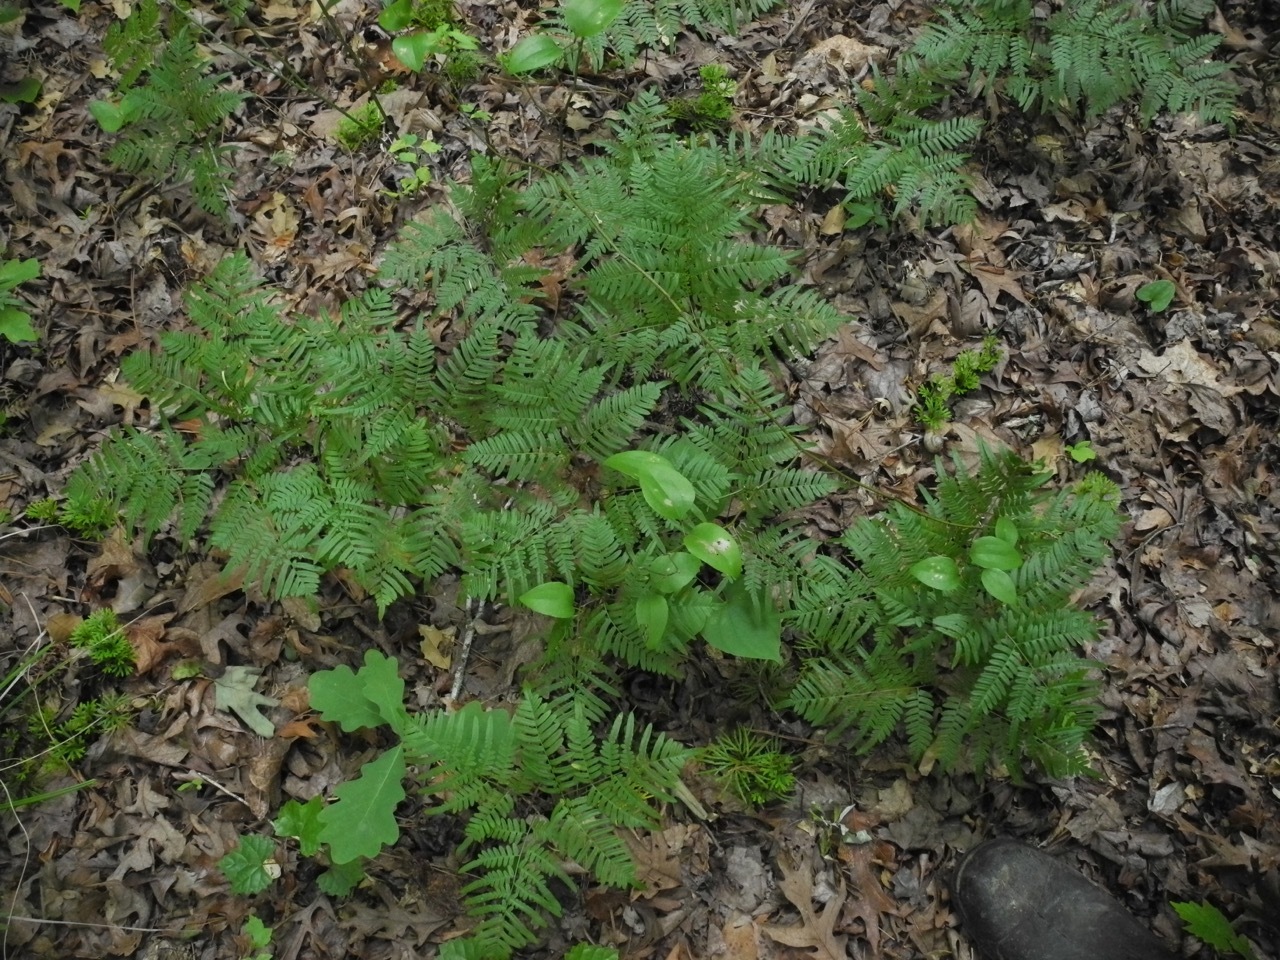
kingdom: Plantae
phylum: Tracheophyta
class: Polypodiopsida
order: Polypodiales
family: Dennstaedtiaceae
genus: Pteridium
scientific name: Pteridium
